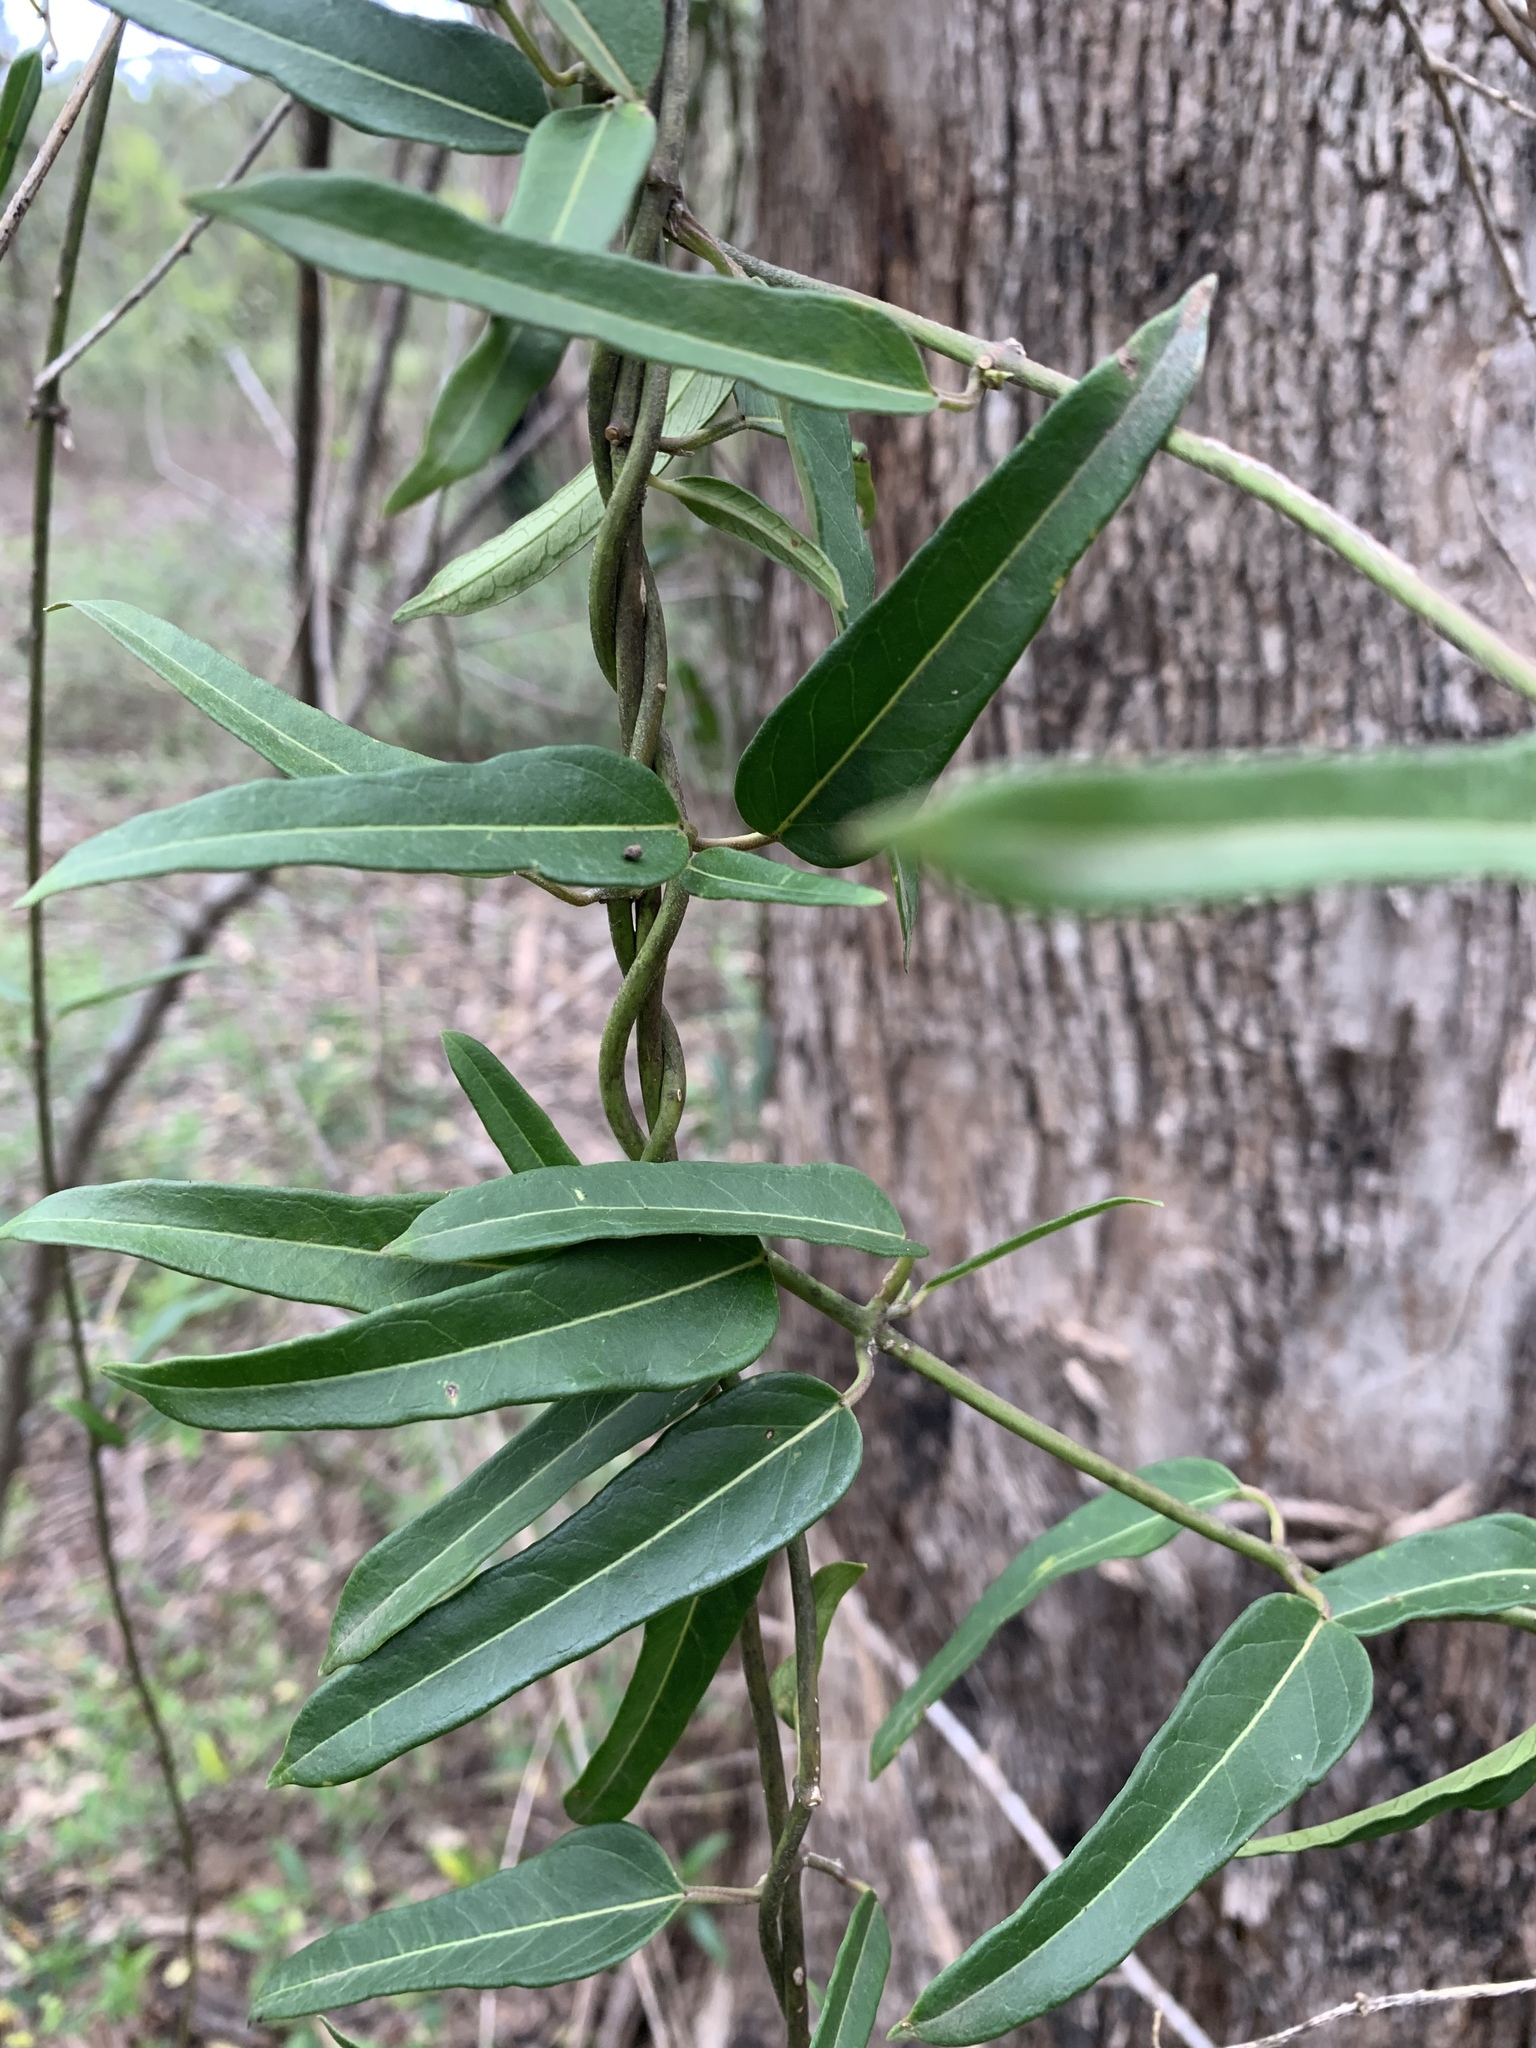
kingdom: Plantae
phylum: Tracheophyta
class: Magnoliopsida
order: Gentianales
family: Apocynaceae
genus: Leichhardtia
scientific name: Leichhardtia viridiflora
